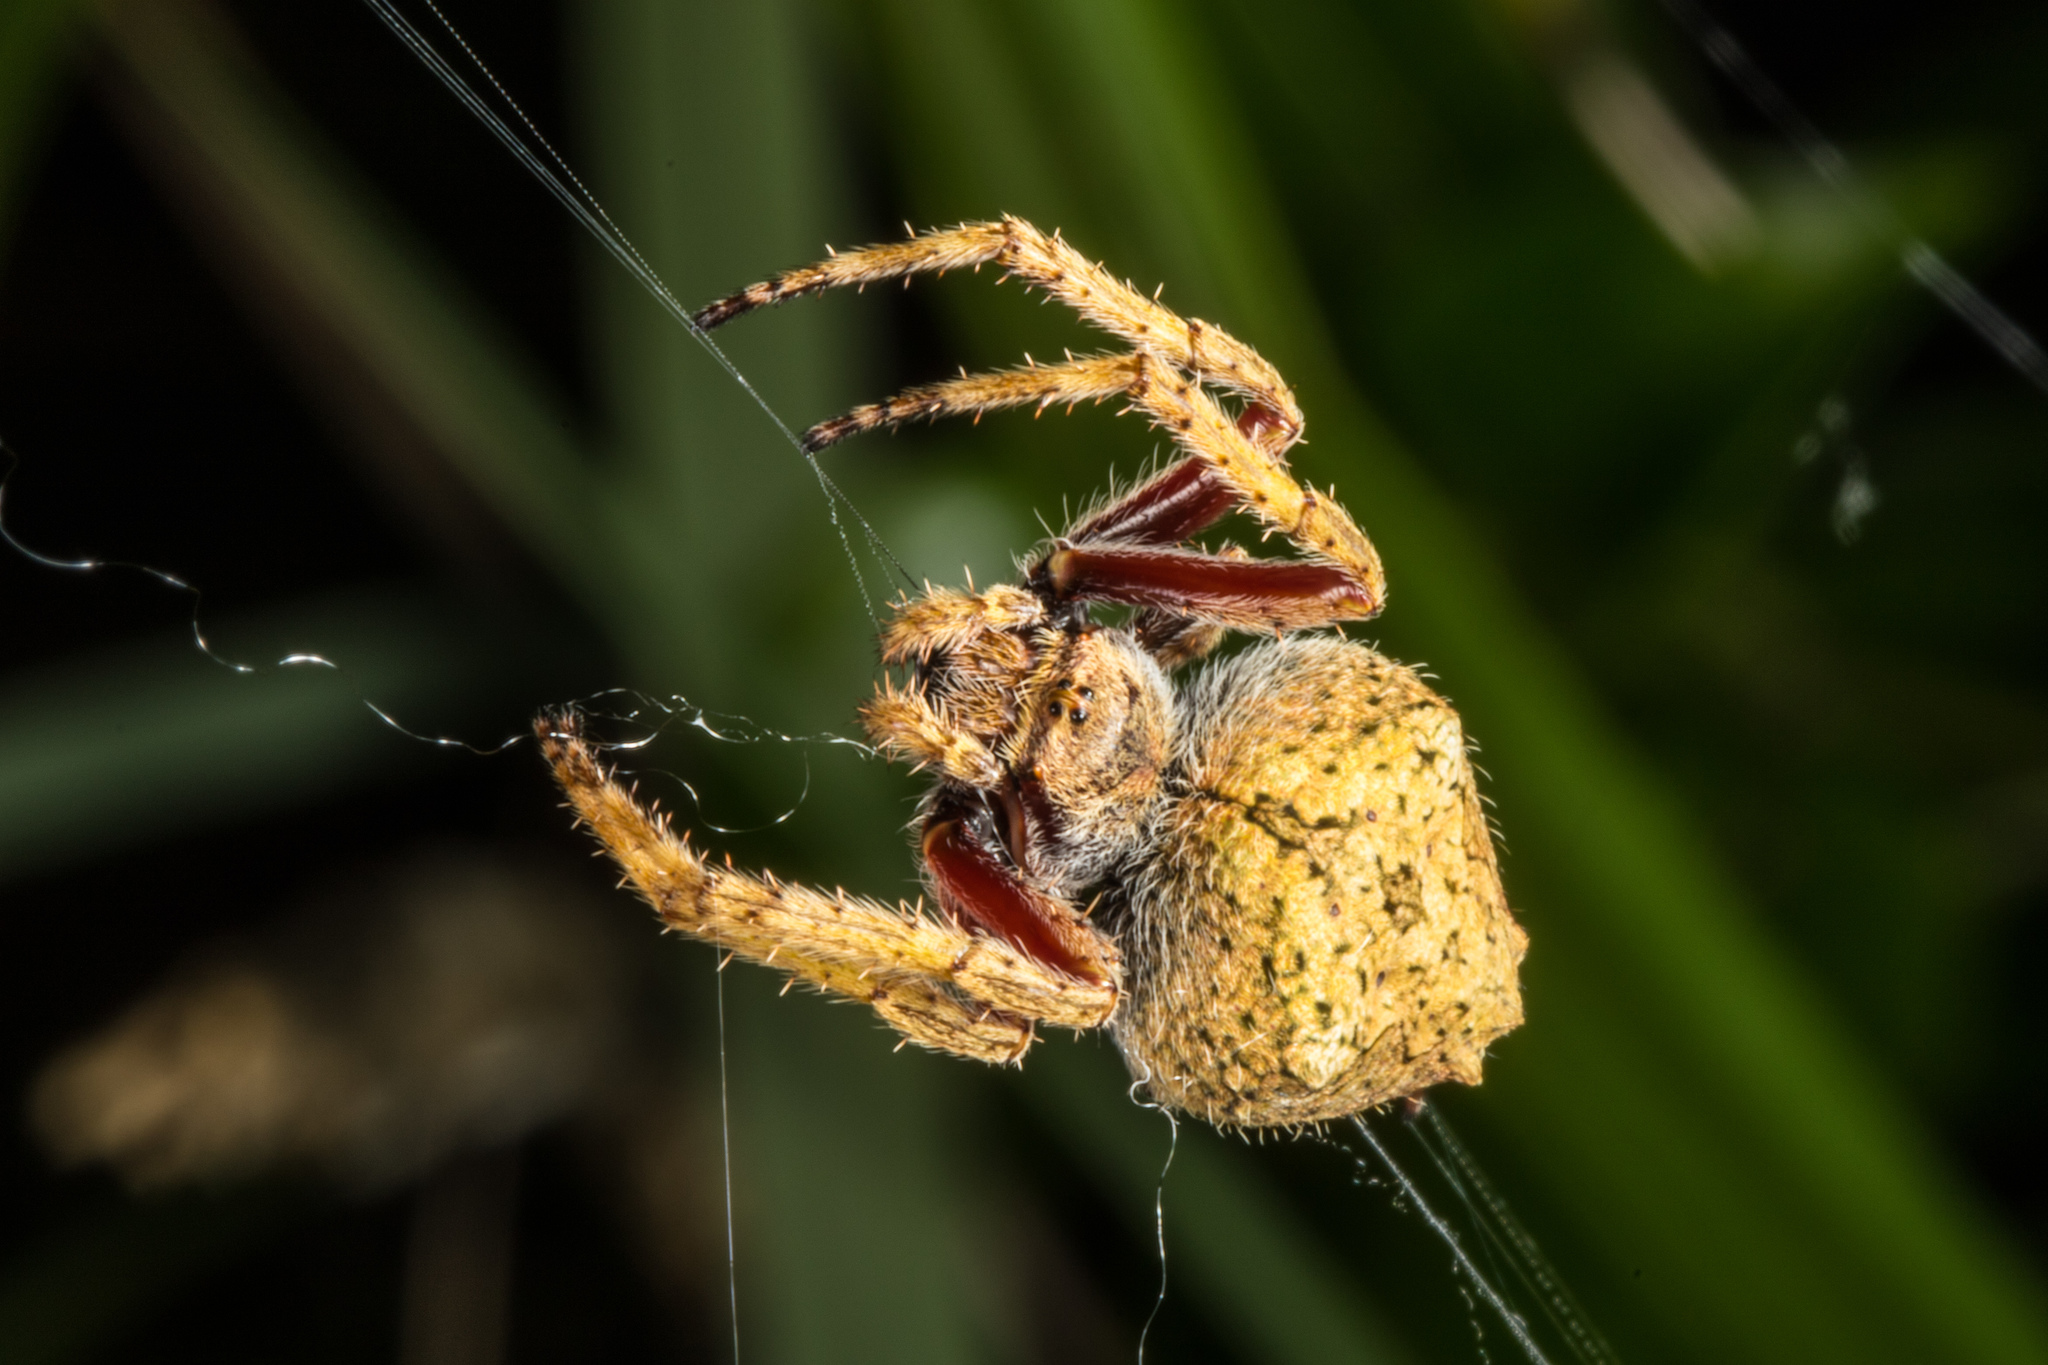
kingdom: Animalia
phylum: Arthropoda
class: Arachnida
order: Araneae
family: Araneidae
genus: Eriophora
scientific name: Eriophora pustulosa
